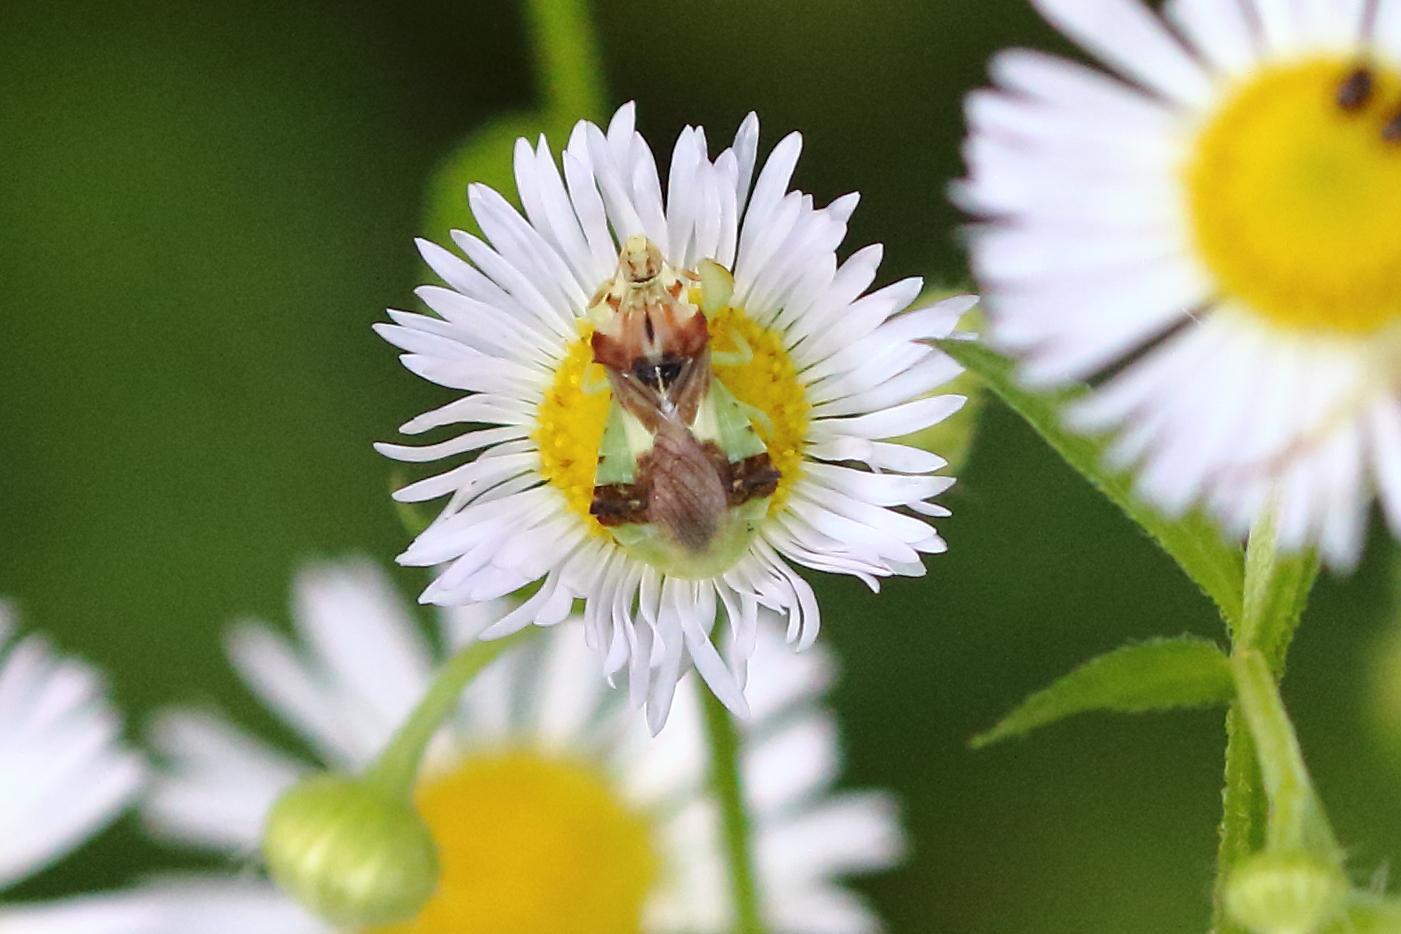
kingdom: Animalia
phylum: Arthropoda
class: Insecta
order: Hemiptera
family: Reduviidae
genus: Phymata
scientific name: Phymata americana
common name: Jagged ambush bug
